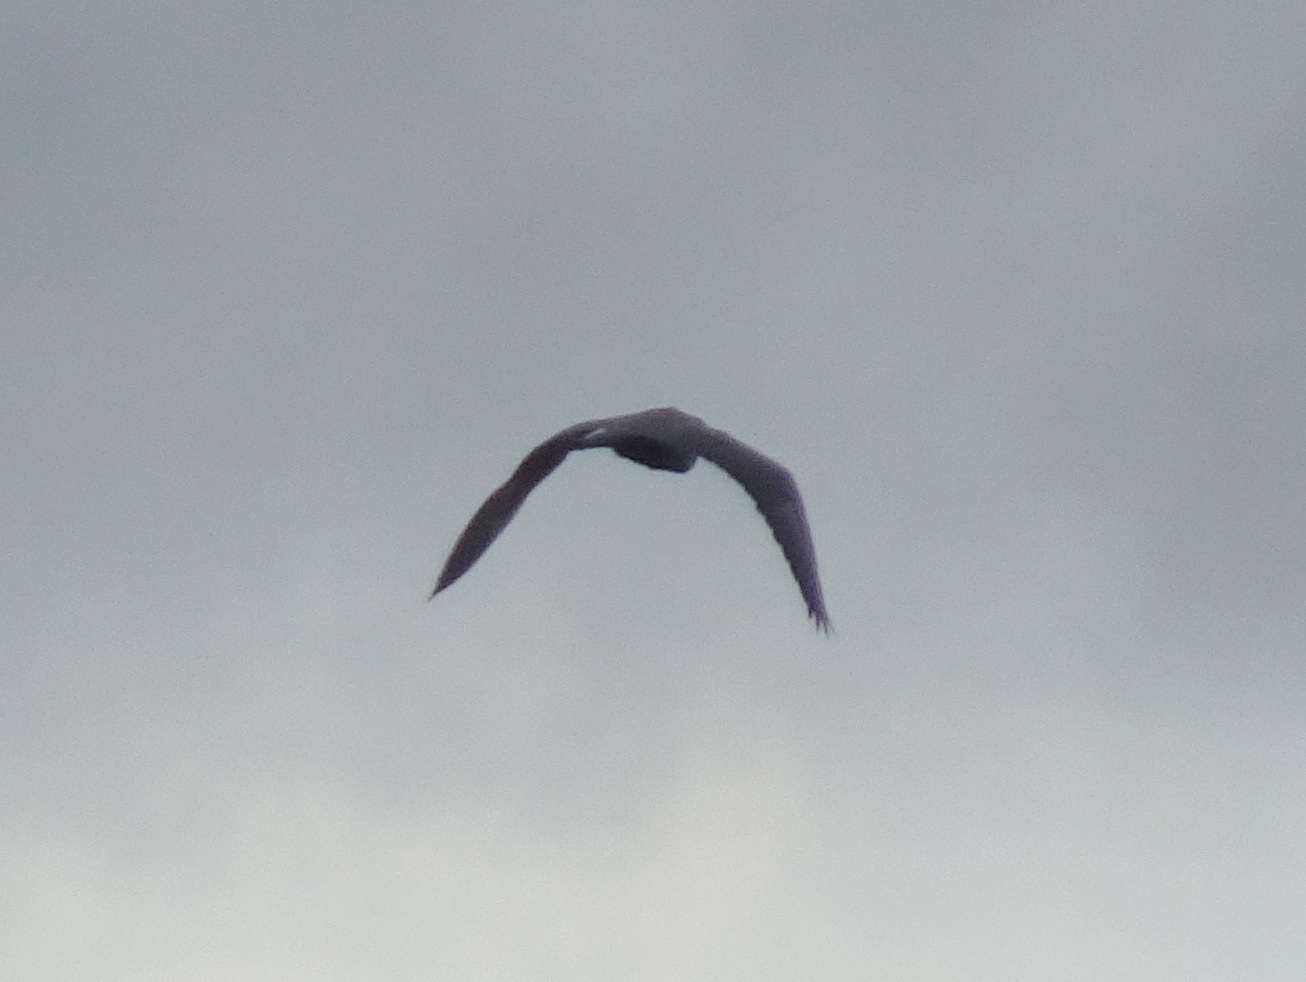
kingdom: Animalia
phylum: Chordata
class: Aves
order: Pelecaniformes
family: Ardeidae
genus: Egretta
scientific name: Egretta rufescens
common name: Reddish egret
